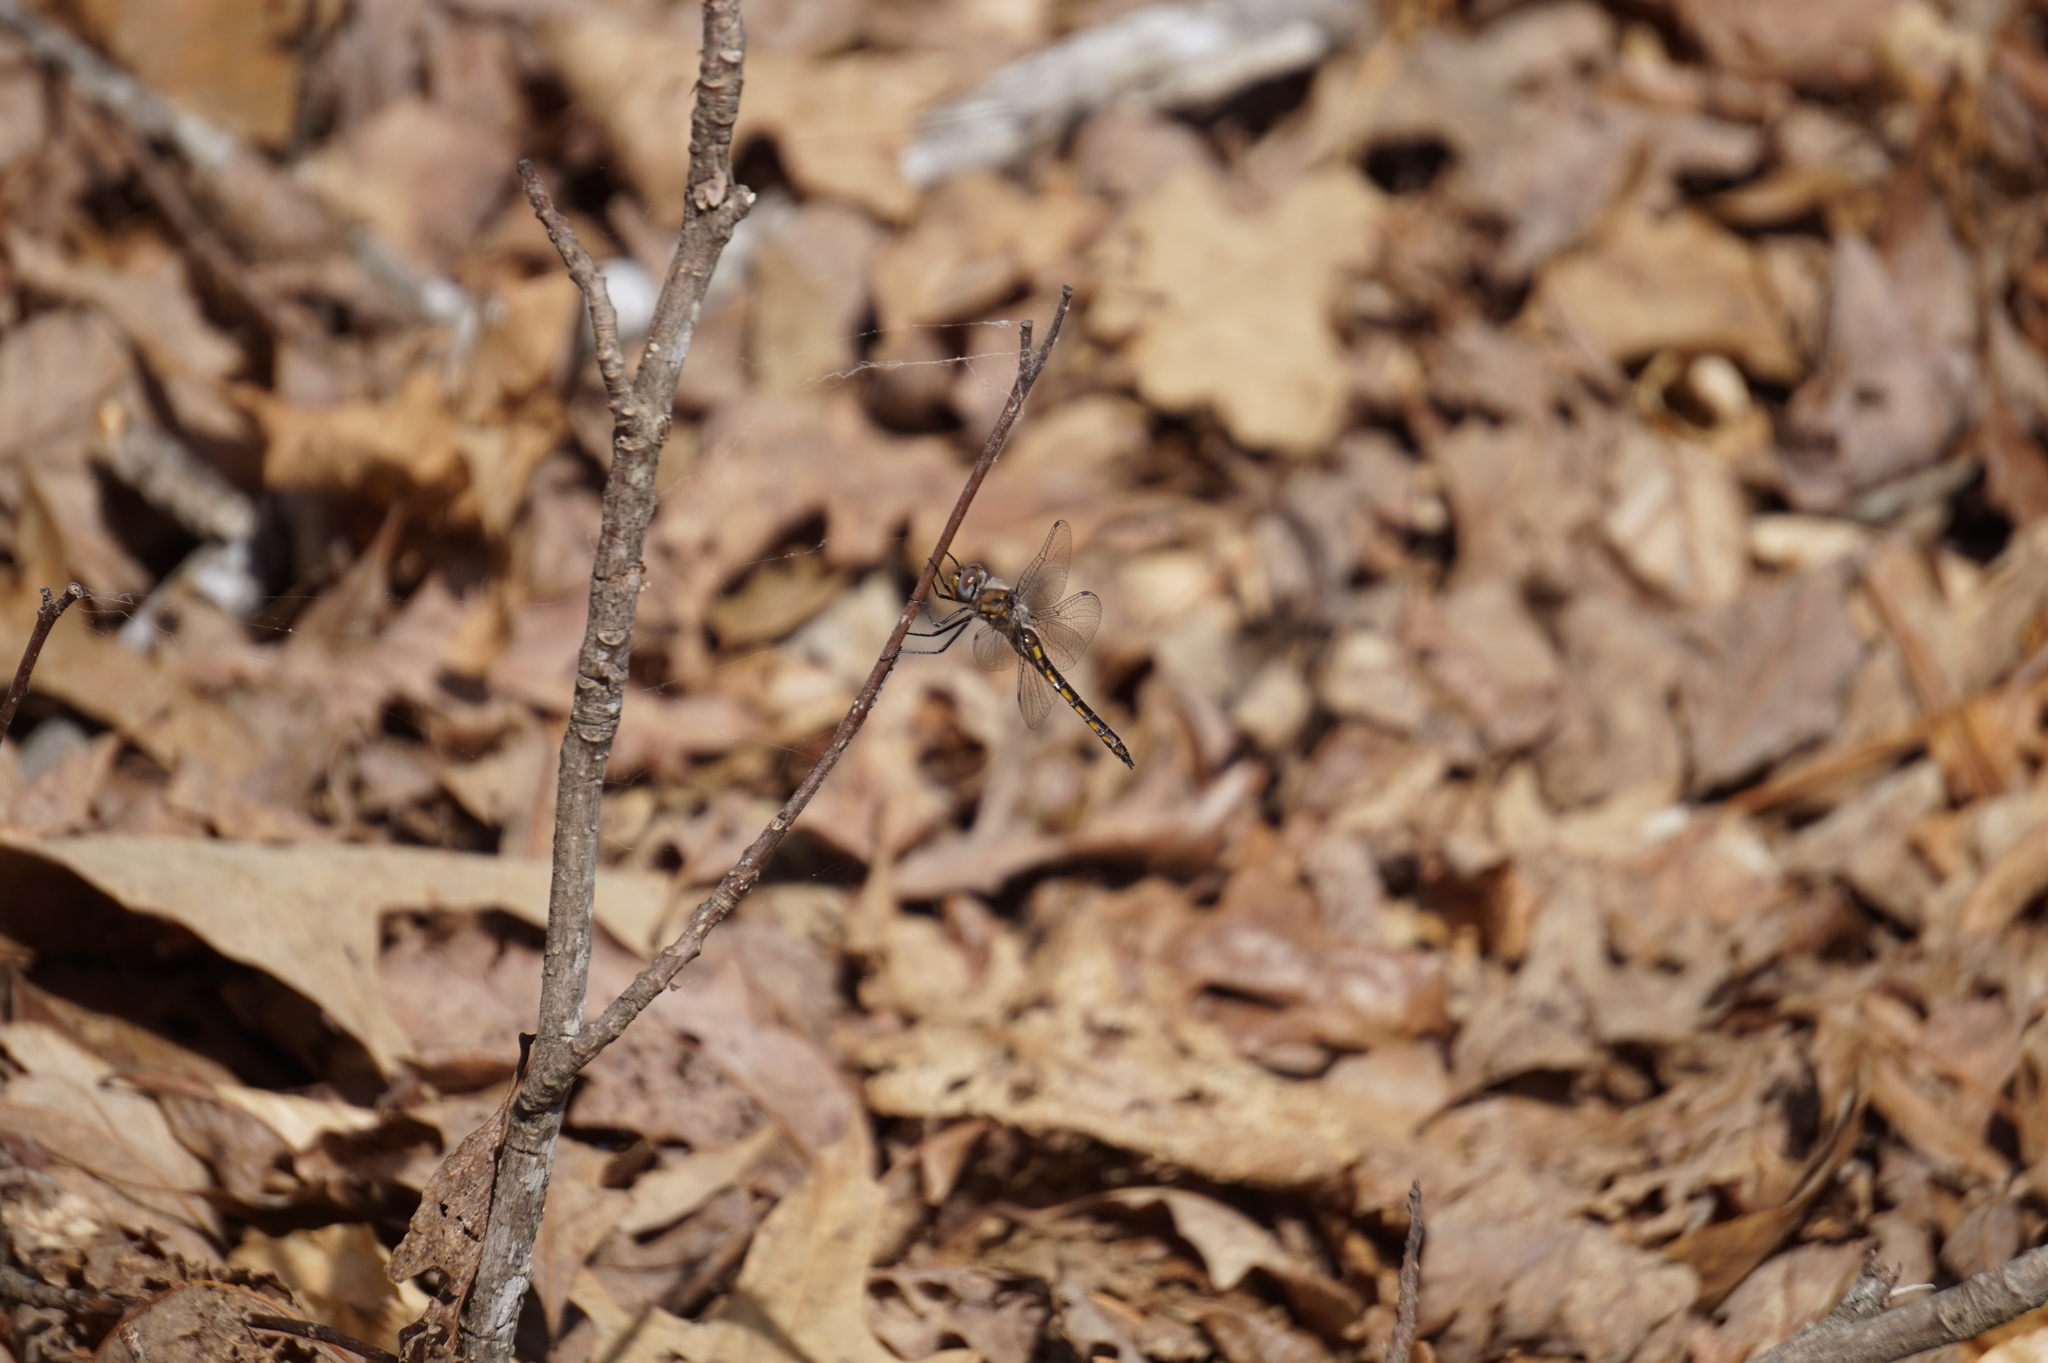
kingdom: Animalia
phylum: Arthropoda
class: Insecta
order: Odonata
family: Corduliidae
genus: Epitheca
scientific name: Epitheca cynosura
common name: Common baskettail
